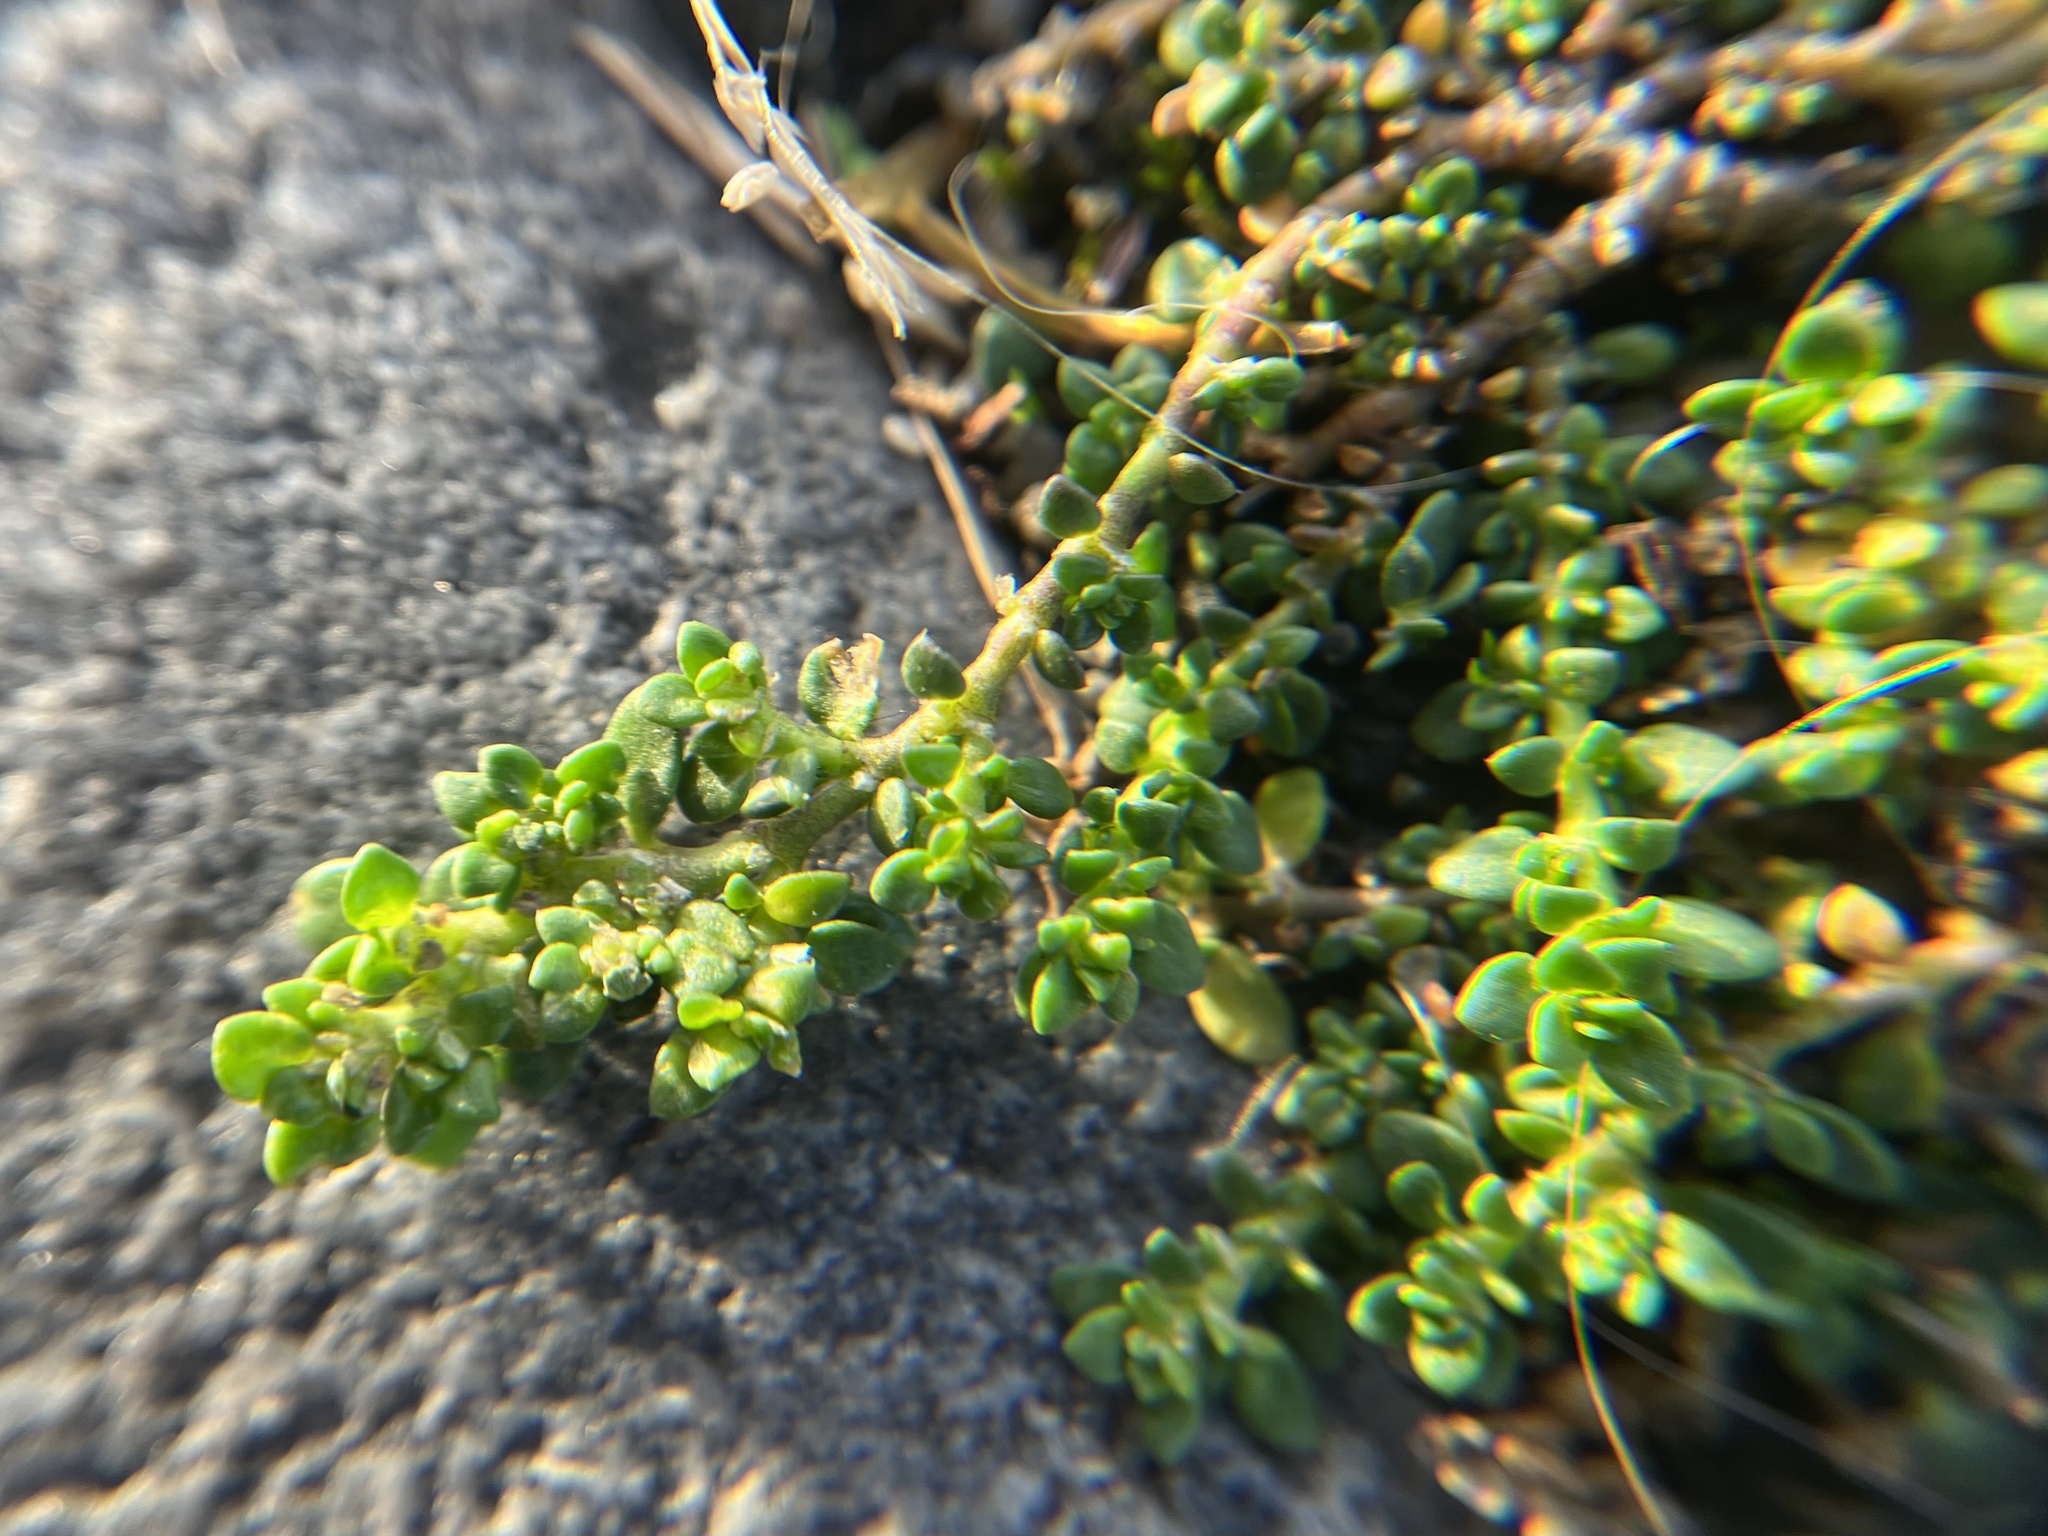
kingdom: Plantae
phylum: Tracheophyta
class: Magnoliopsida
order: Caryophyllales
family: Caryophyllaceae
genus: Herniaria
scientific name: Herniaria glabra
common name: Smooth rupturewort
